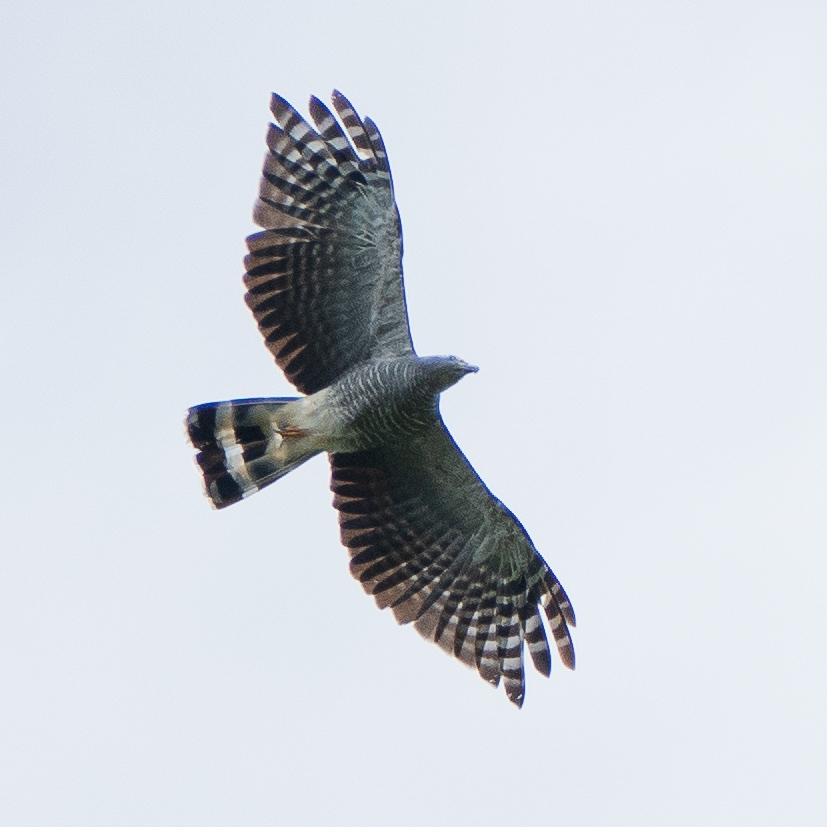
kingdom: Animalia
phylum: Chordata
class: Aves
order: Accipitriformes
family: Accipitridae
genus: Chondrohierax
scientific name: Chondrohierax uncinatus
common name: Hook-billed kite
